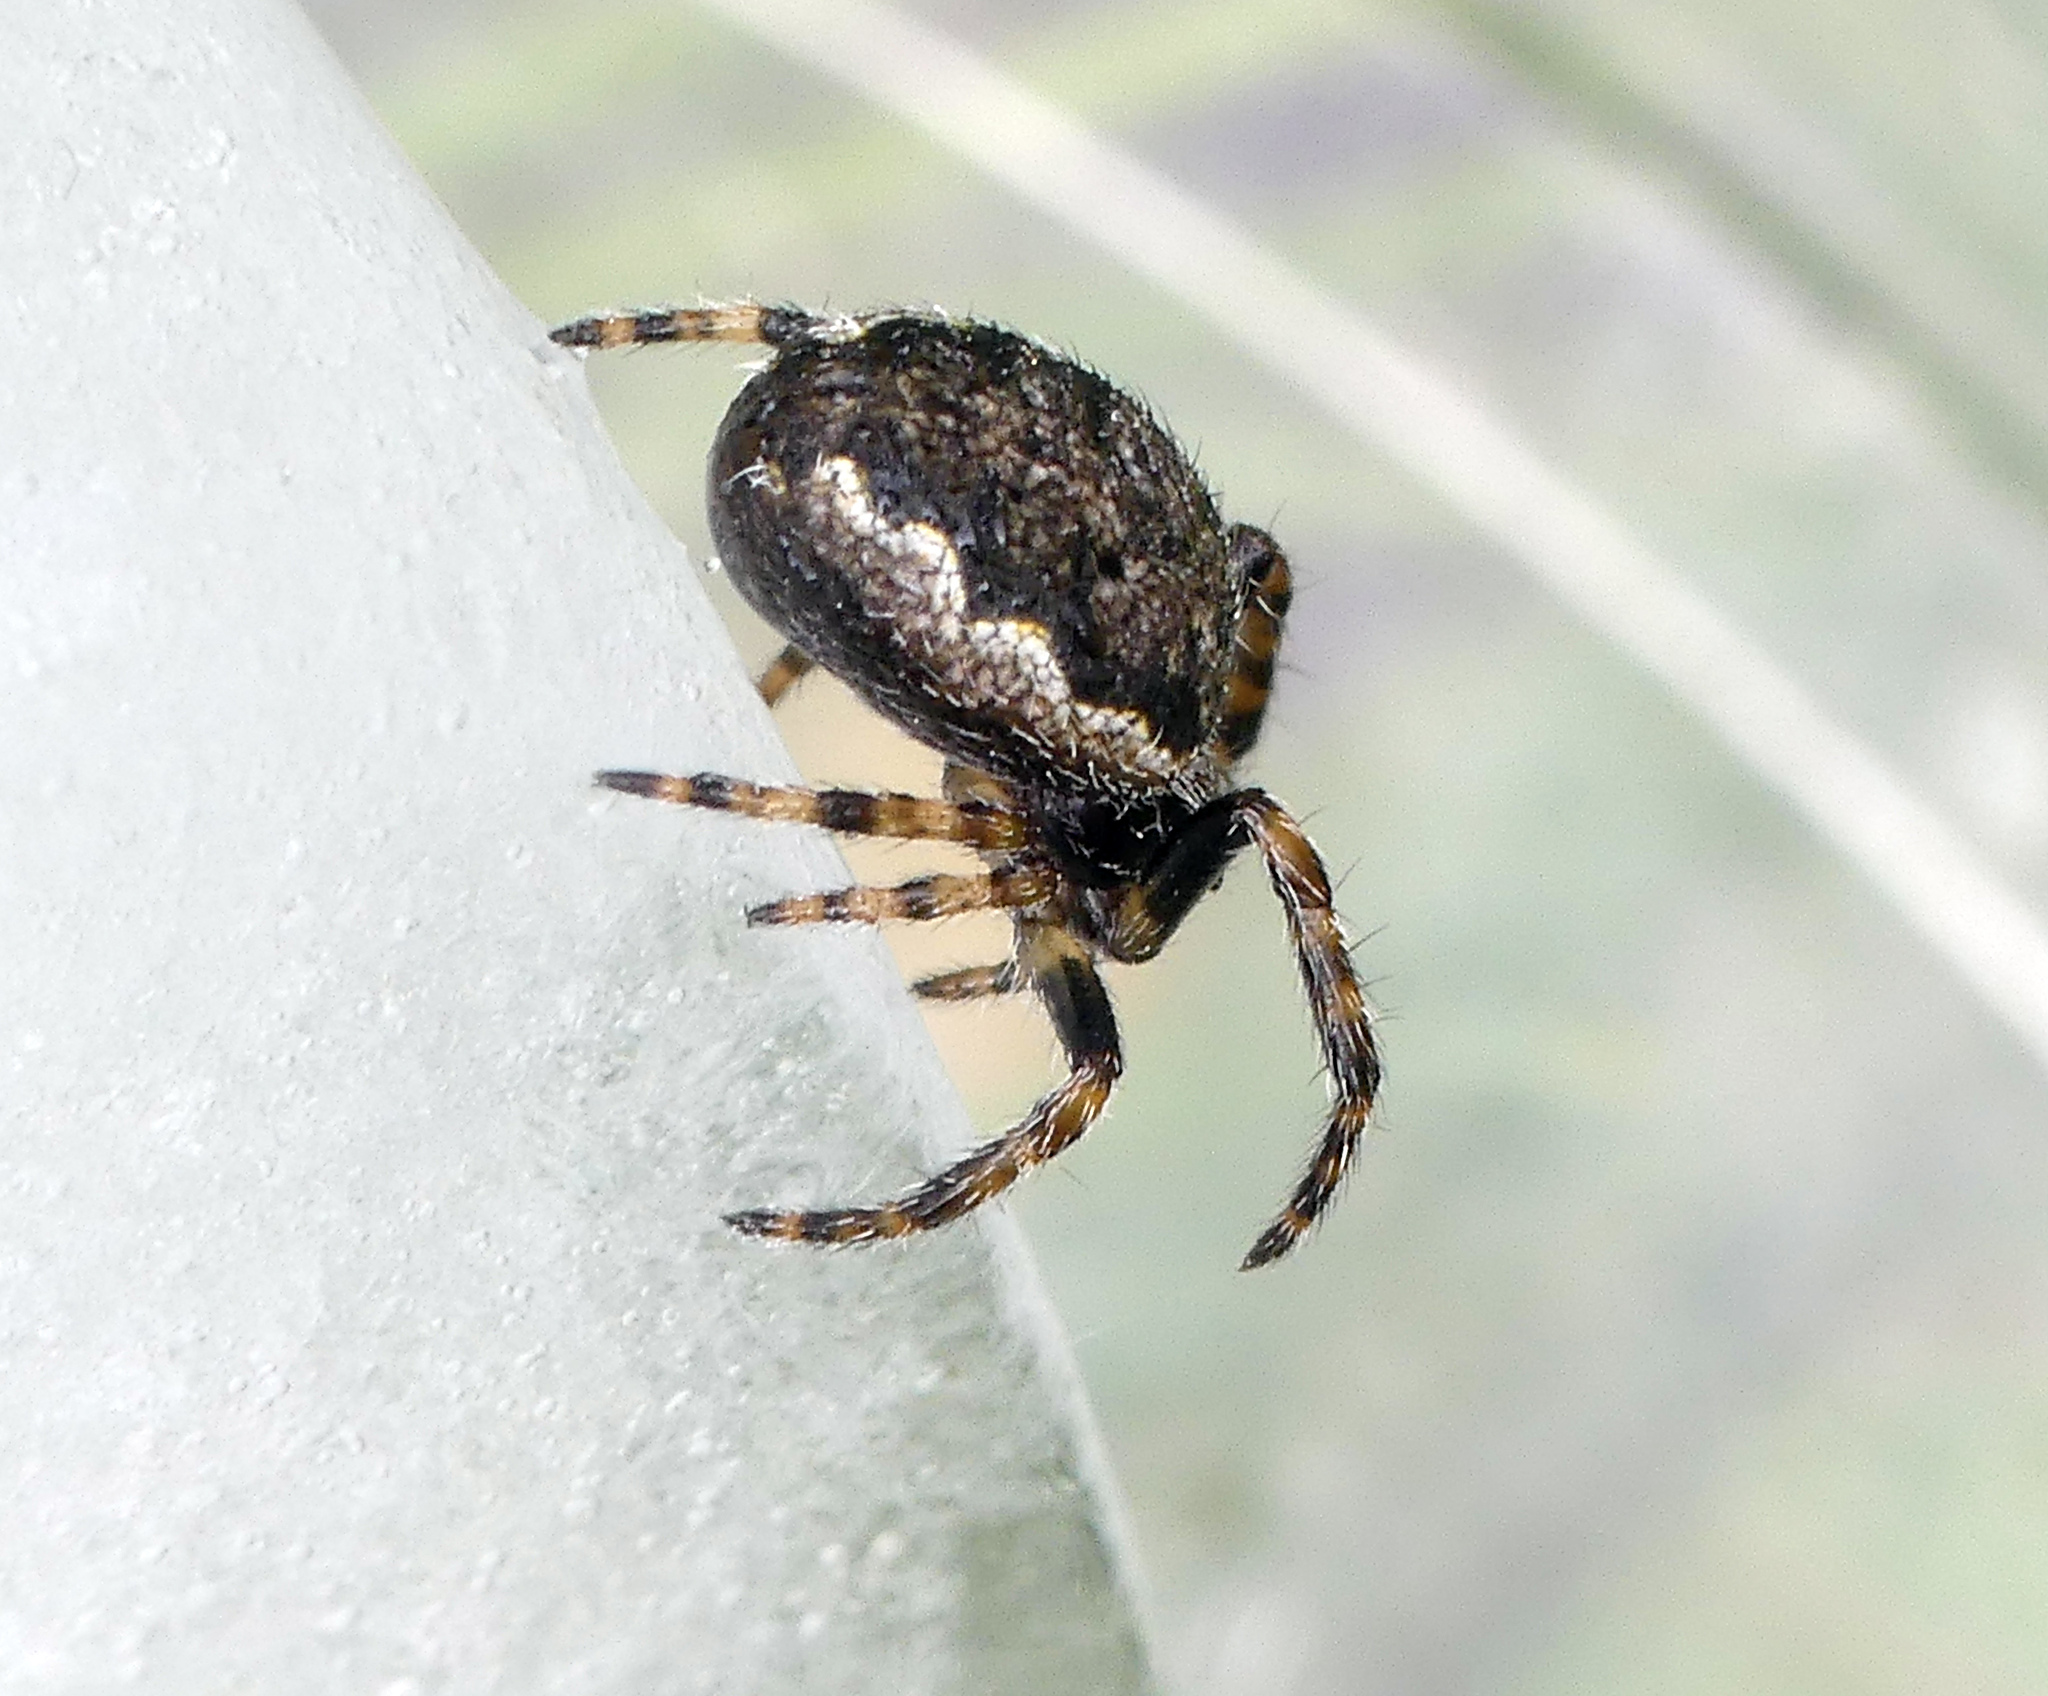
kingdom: Animalia
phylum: Arthropoda
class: Arachnida
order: Araneae
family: Araneidae
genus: Nuctenea
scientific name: Nuctenea umbratica
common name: Toad spider
